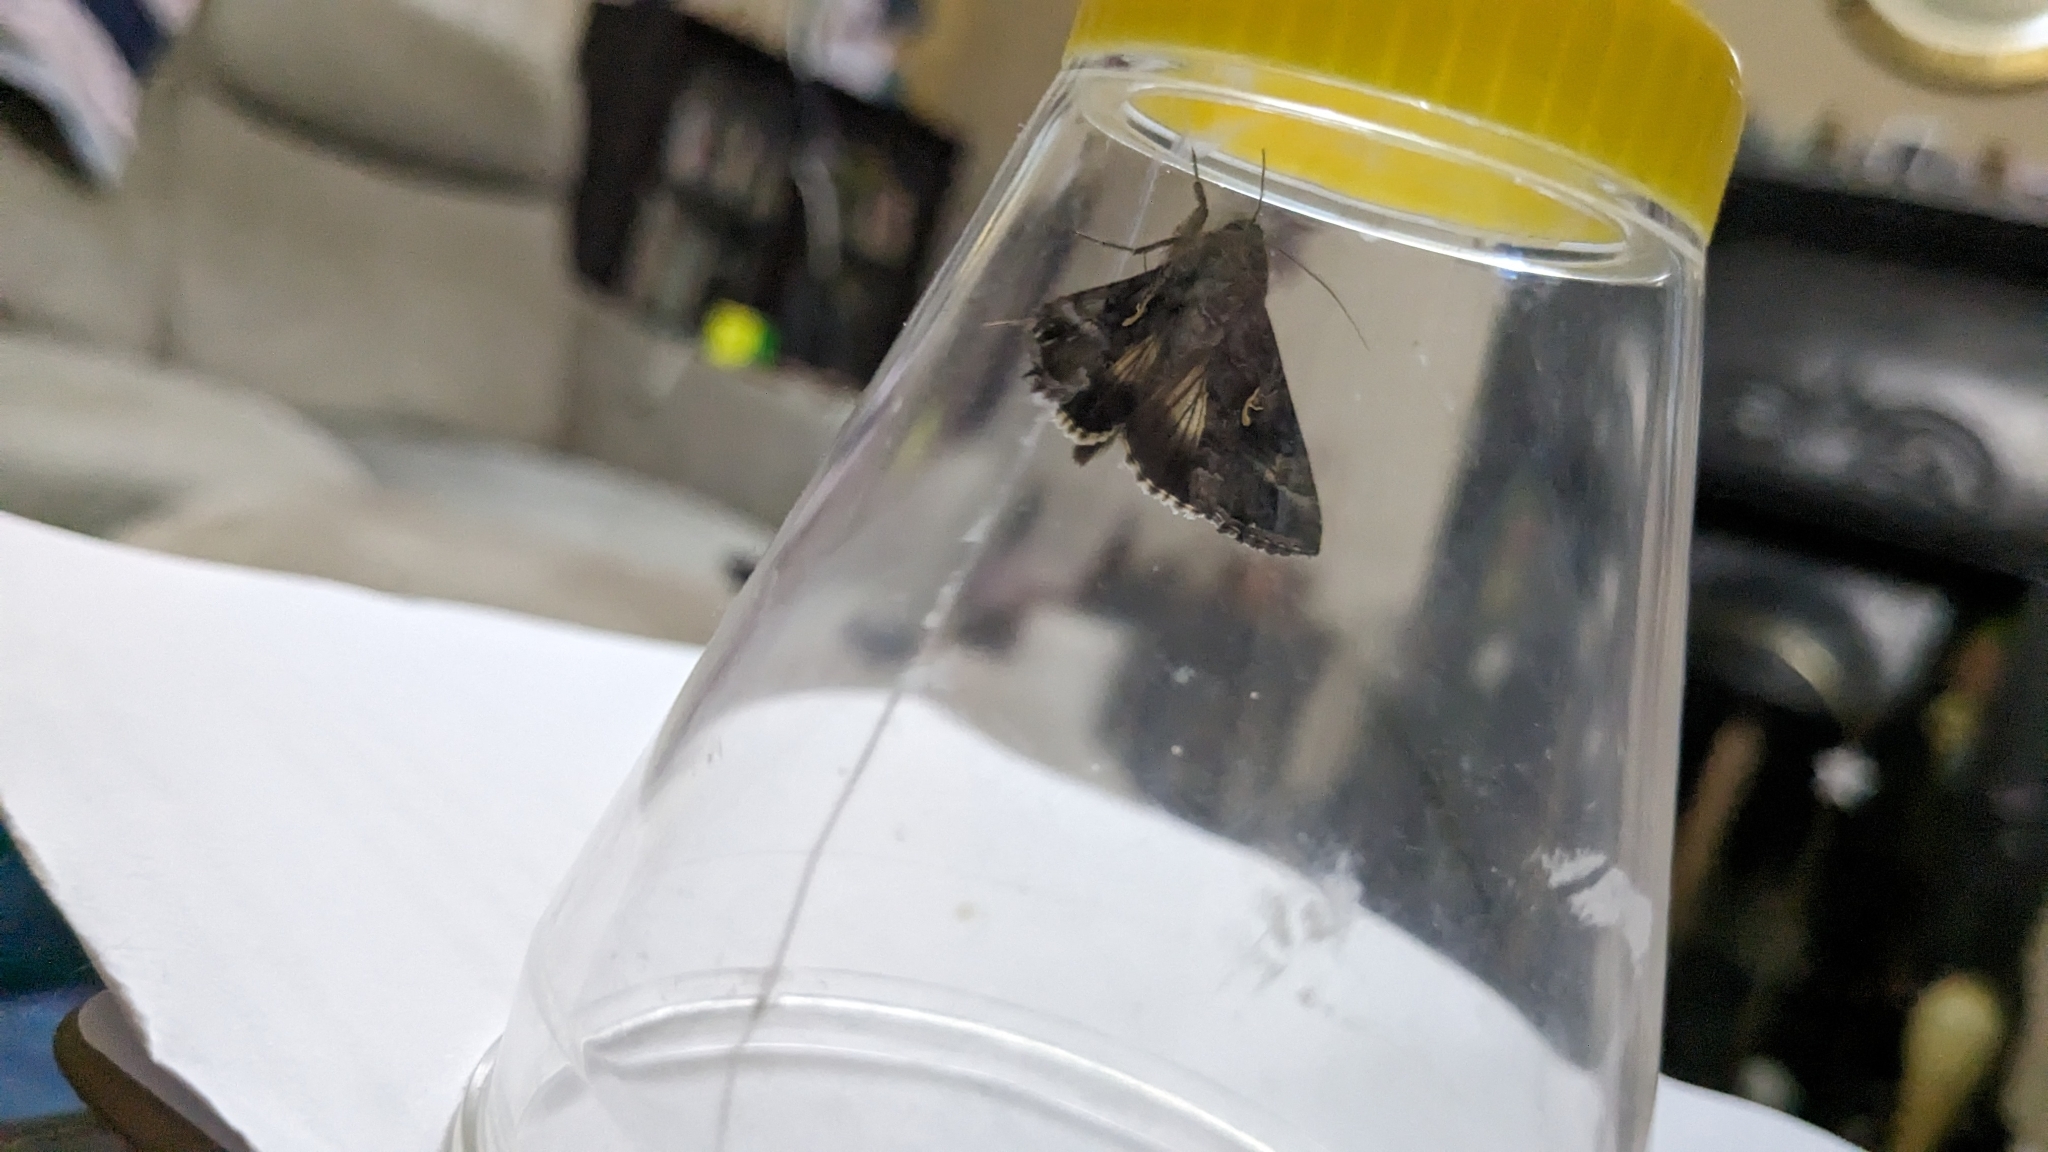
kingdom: Animalia
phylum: Arthropoda
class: Insecta
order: Lepidoptera
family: Noctuidae
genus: Autographa
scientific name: Autographa gamma
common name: Silver y
